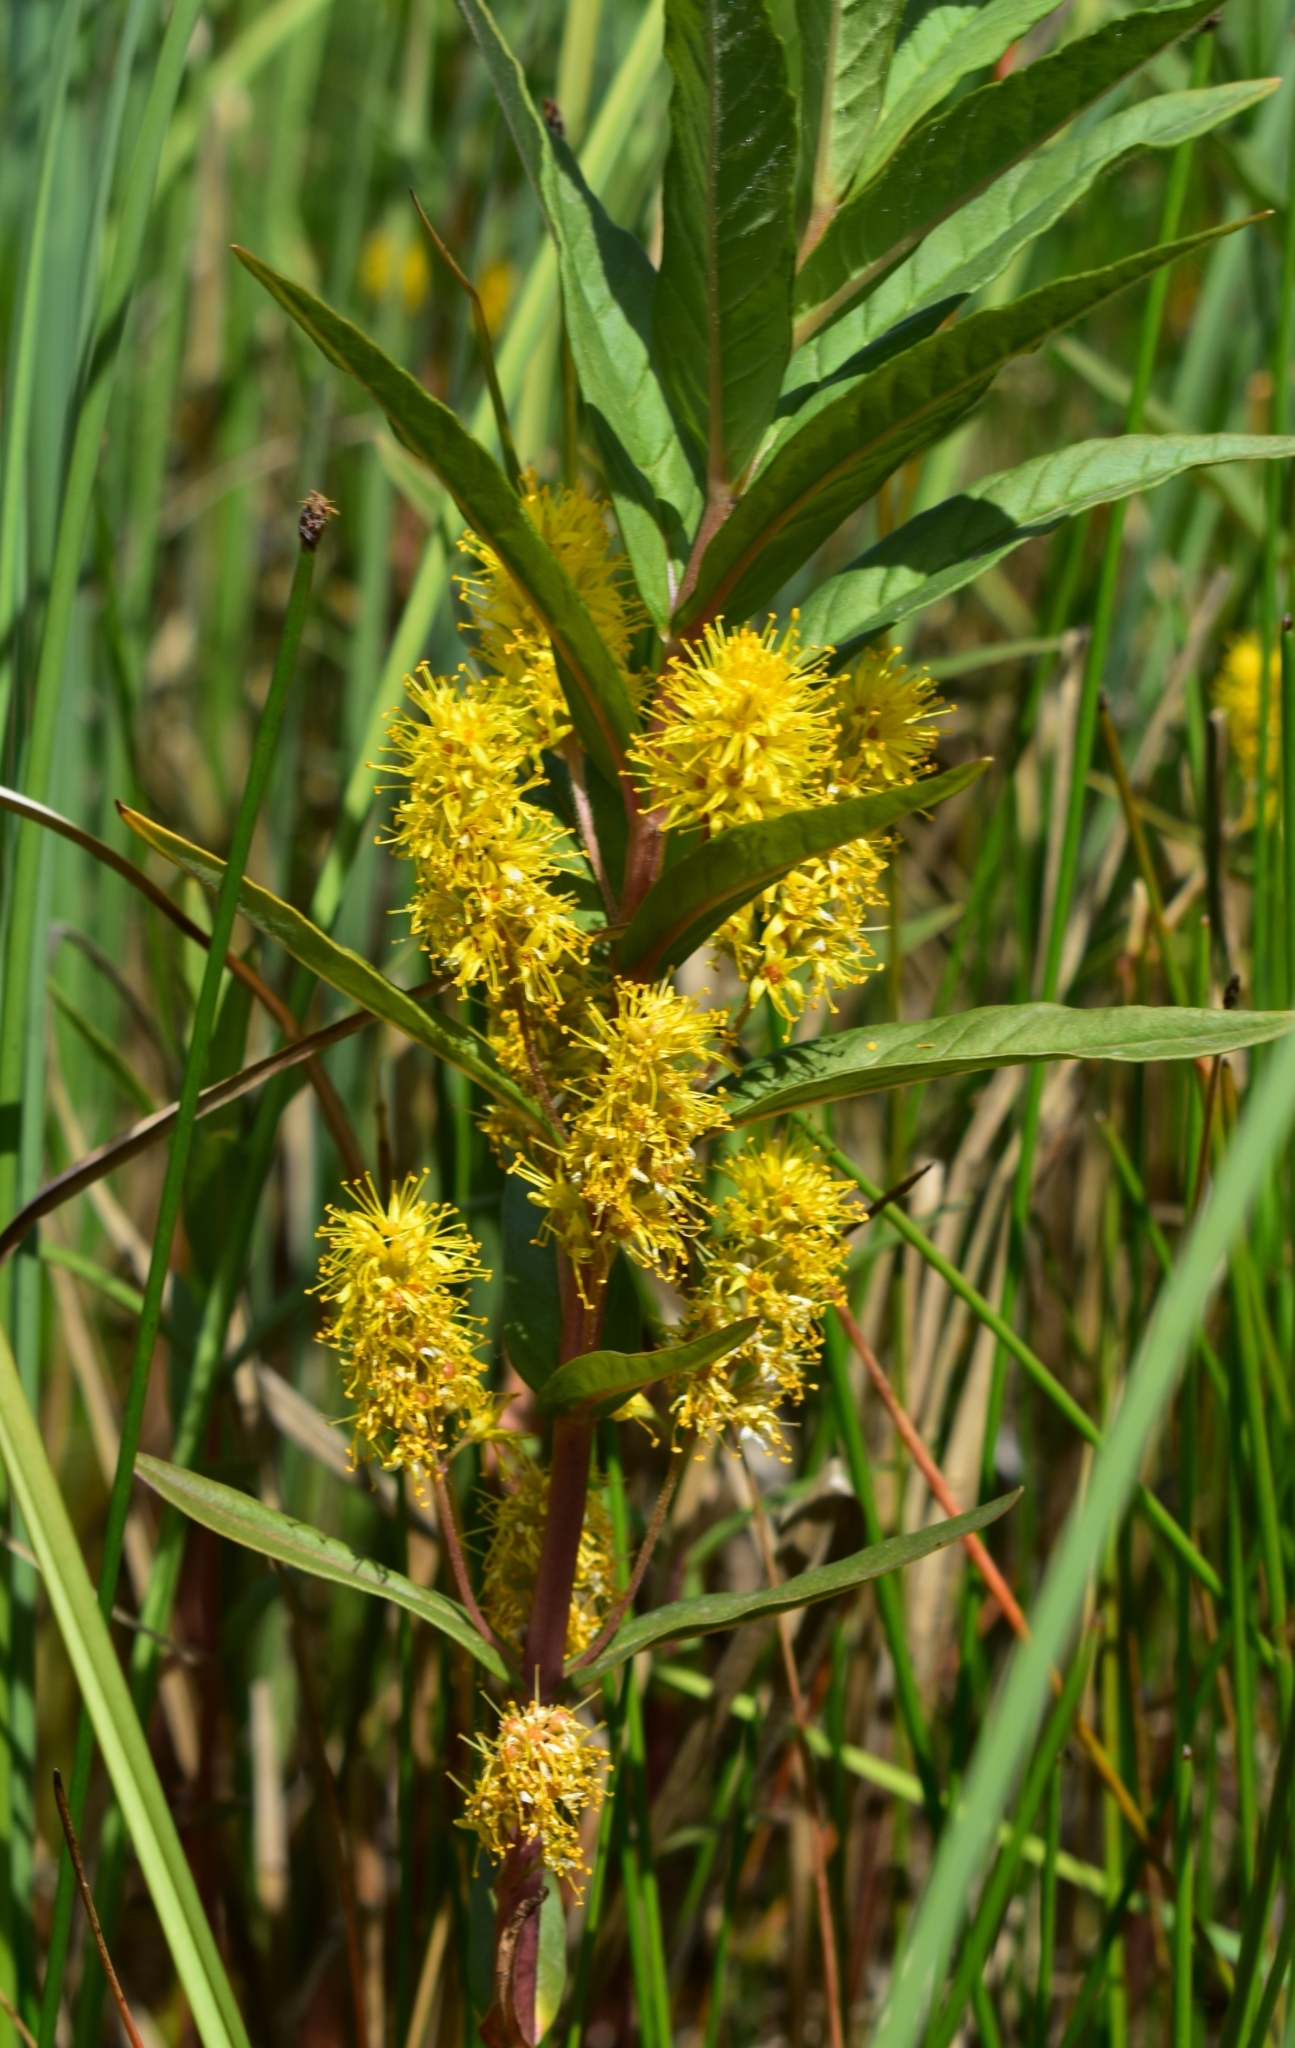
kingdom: Plantae
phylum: Tracheophyta
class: Magnoliopsida
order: Ericales
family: Primulaceae
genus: Lysimachia
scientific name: Lysimachia thyrsiflora
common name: Tufted loosestrife
